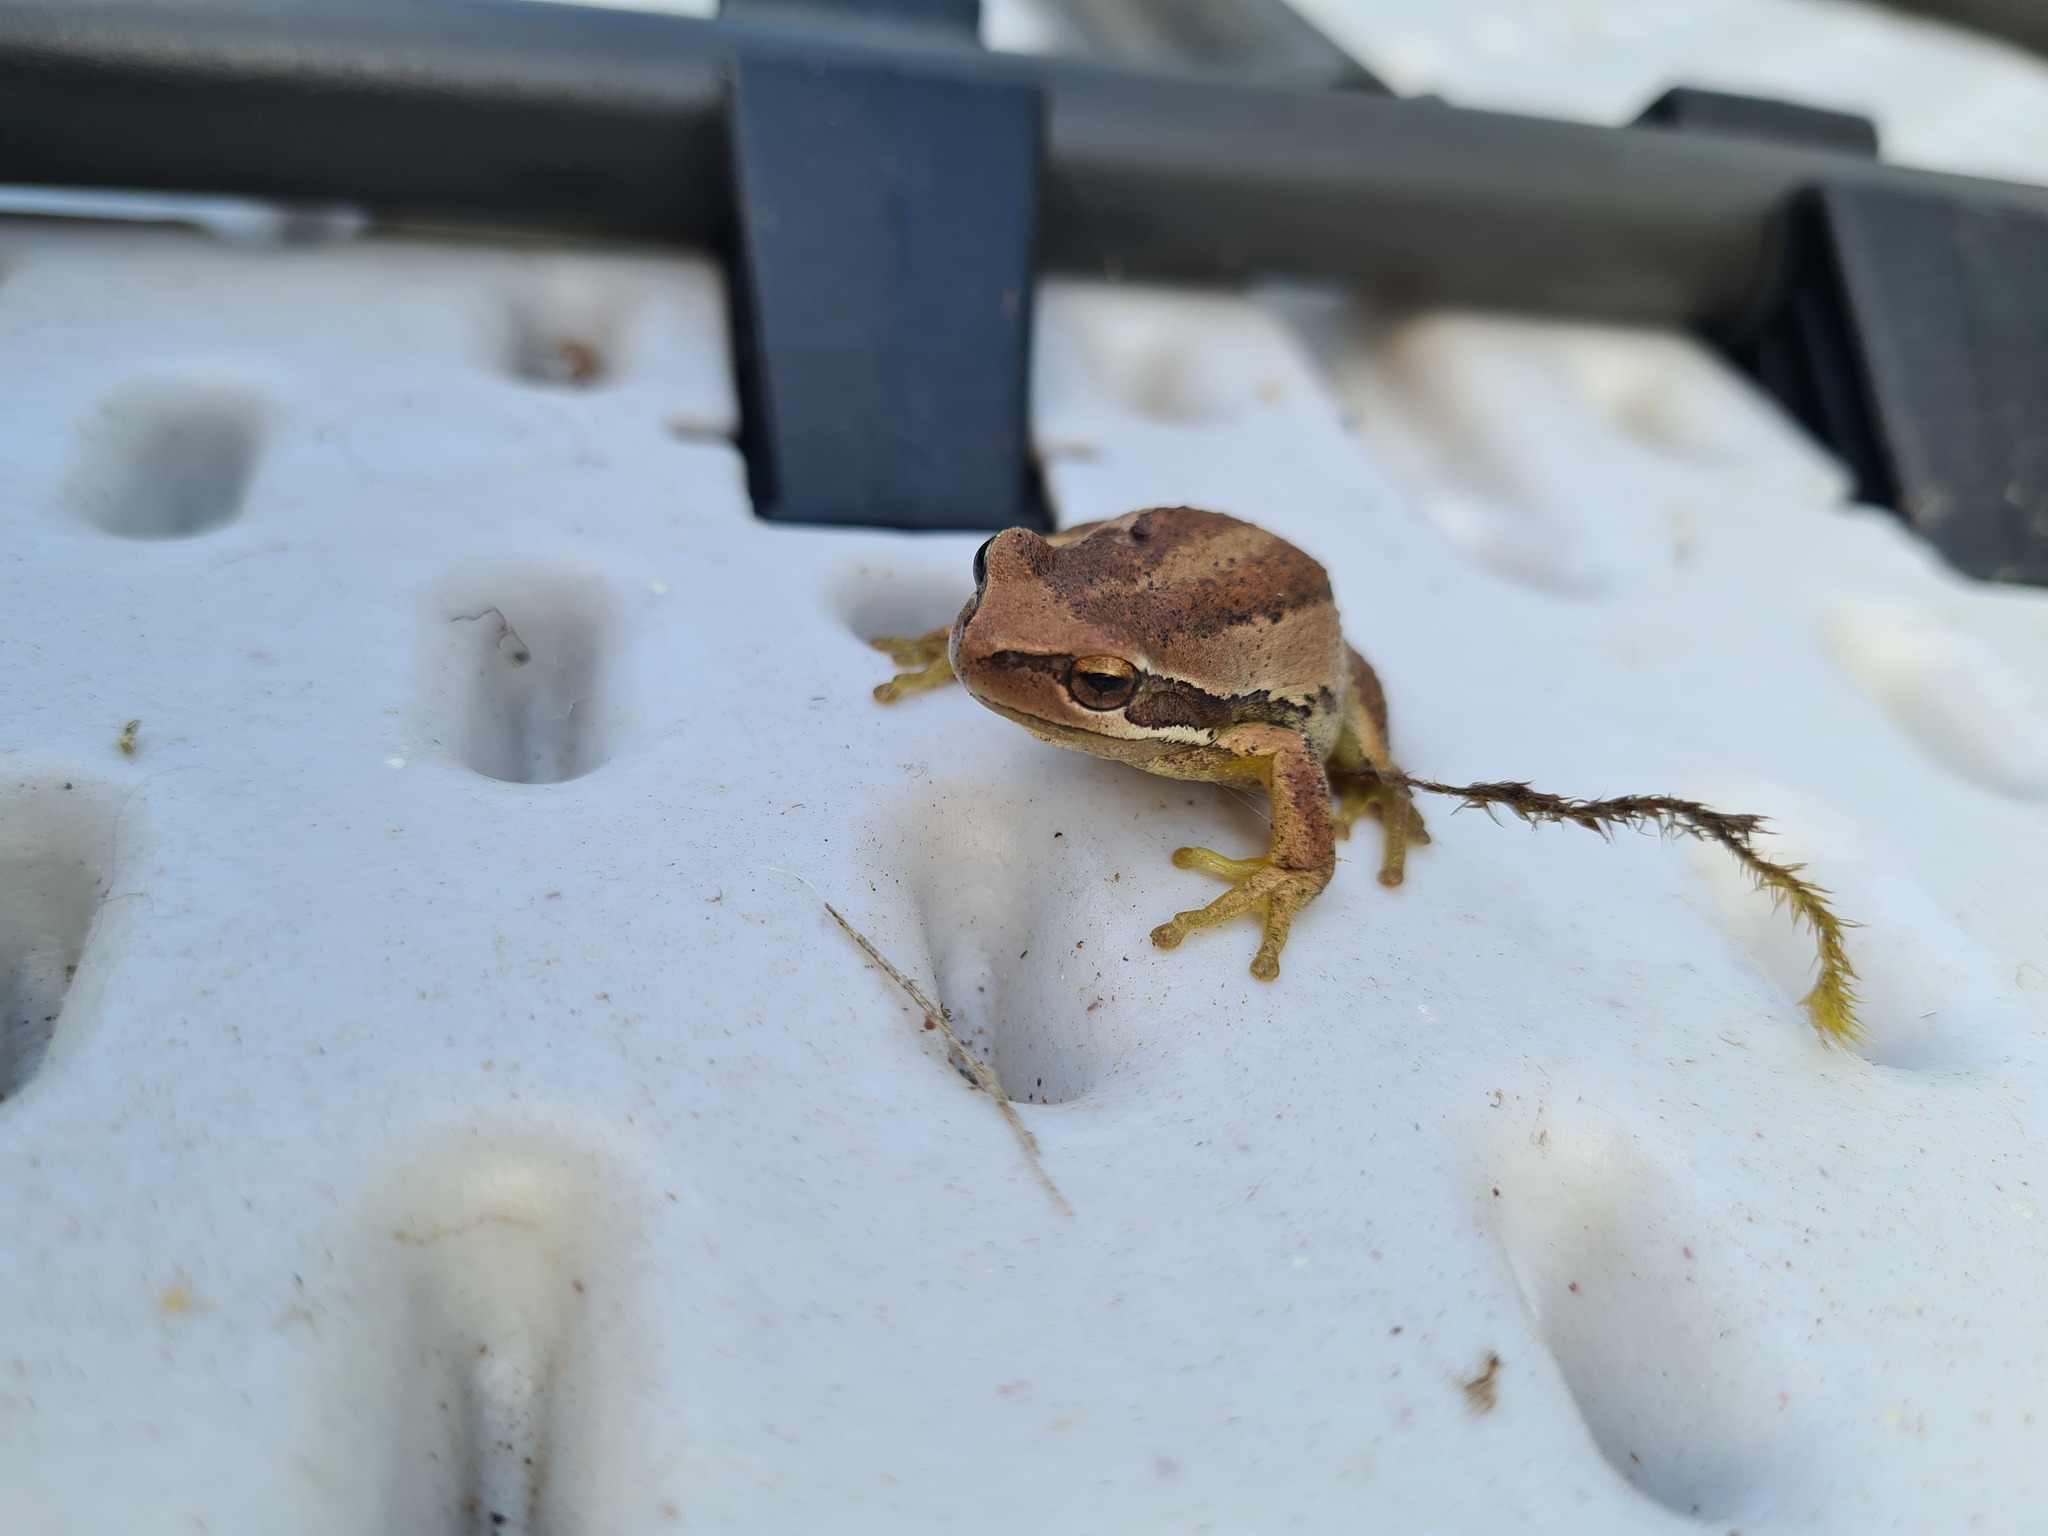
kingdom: Animalia
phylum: Chordata
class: Amphibia
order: Anura
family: Pelodryadidae
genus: Litoria
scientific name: Litoria ewingii
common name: Southern brown tree frog
